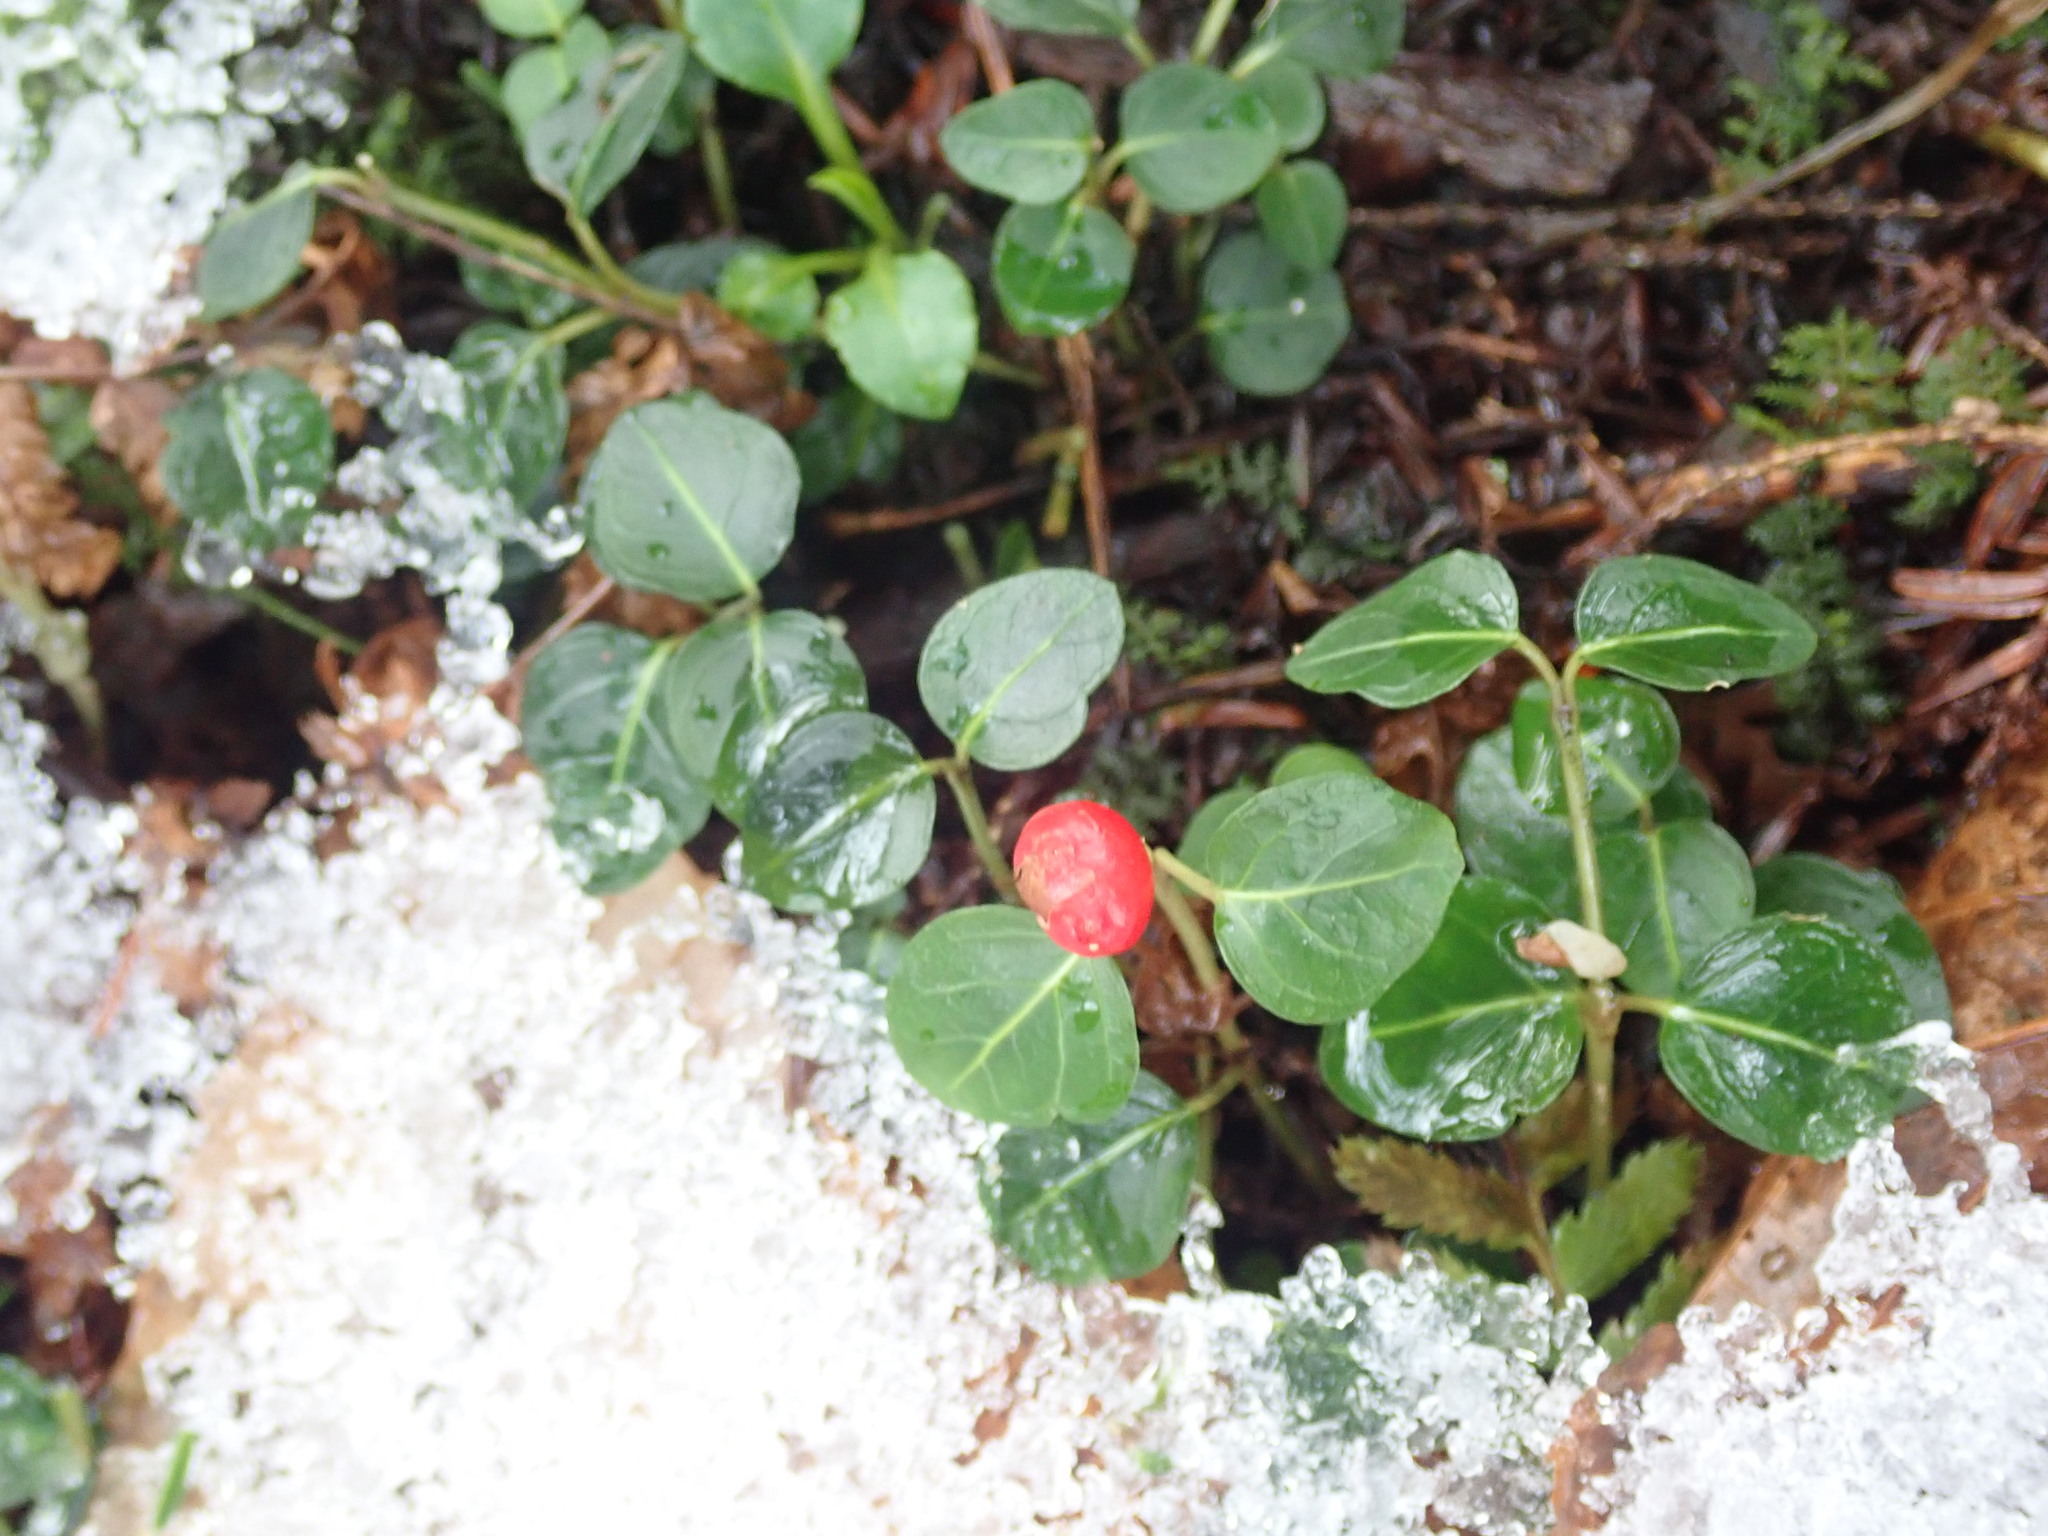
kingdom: Plantae
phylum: Tracheophyta
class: Magnoliopsida
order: Gentianales
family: Rubiaceae
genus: Mitchella
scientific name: Mitchella repens
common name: Partridge-berry
